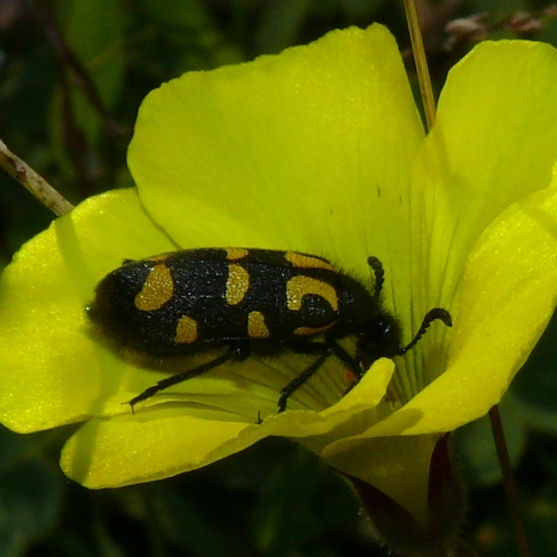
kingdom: Animalia
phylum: Arthropoda
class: Insecta
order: Coleoptera
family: Meloidae
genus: Ceroctis
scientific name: Ceroctis capensis
